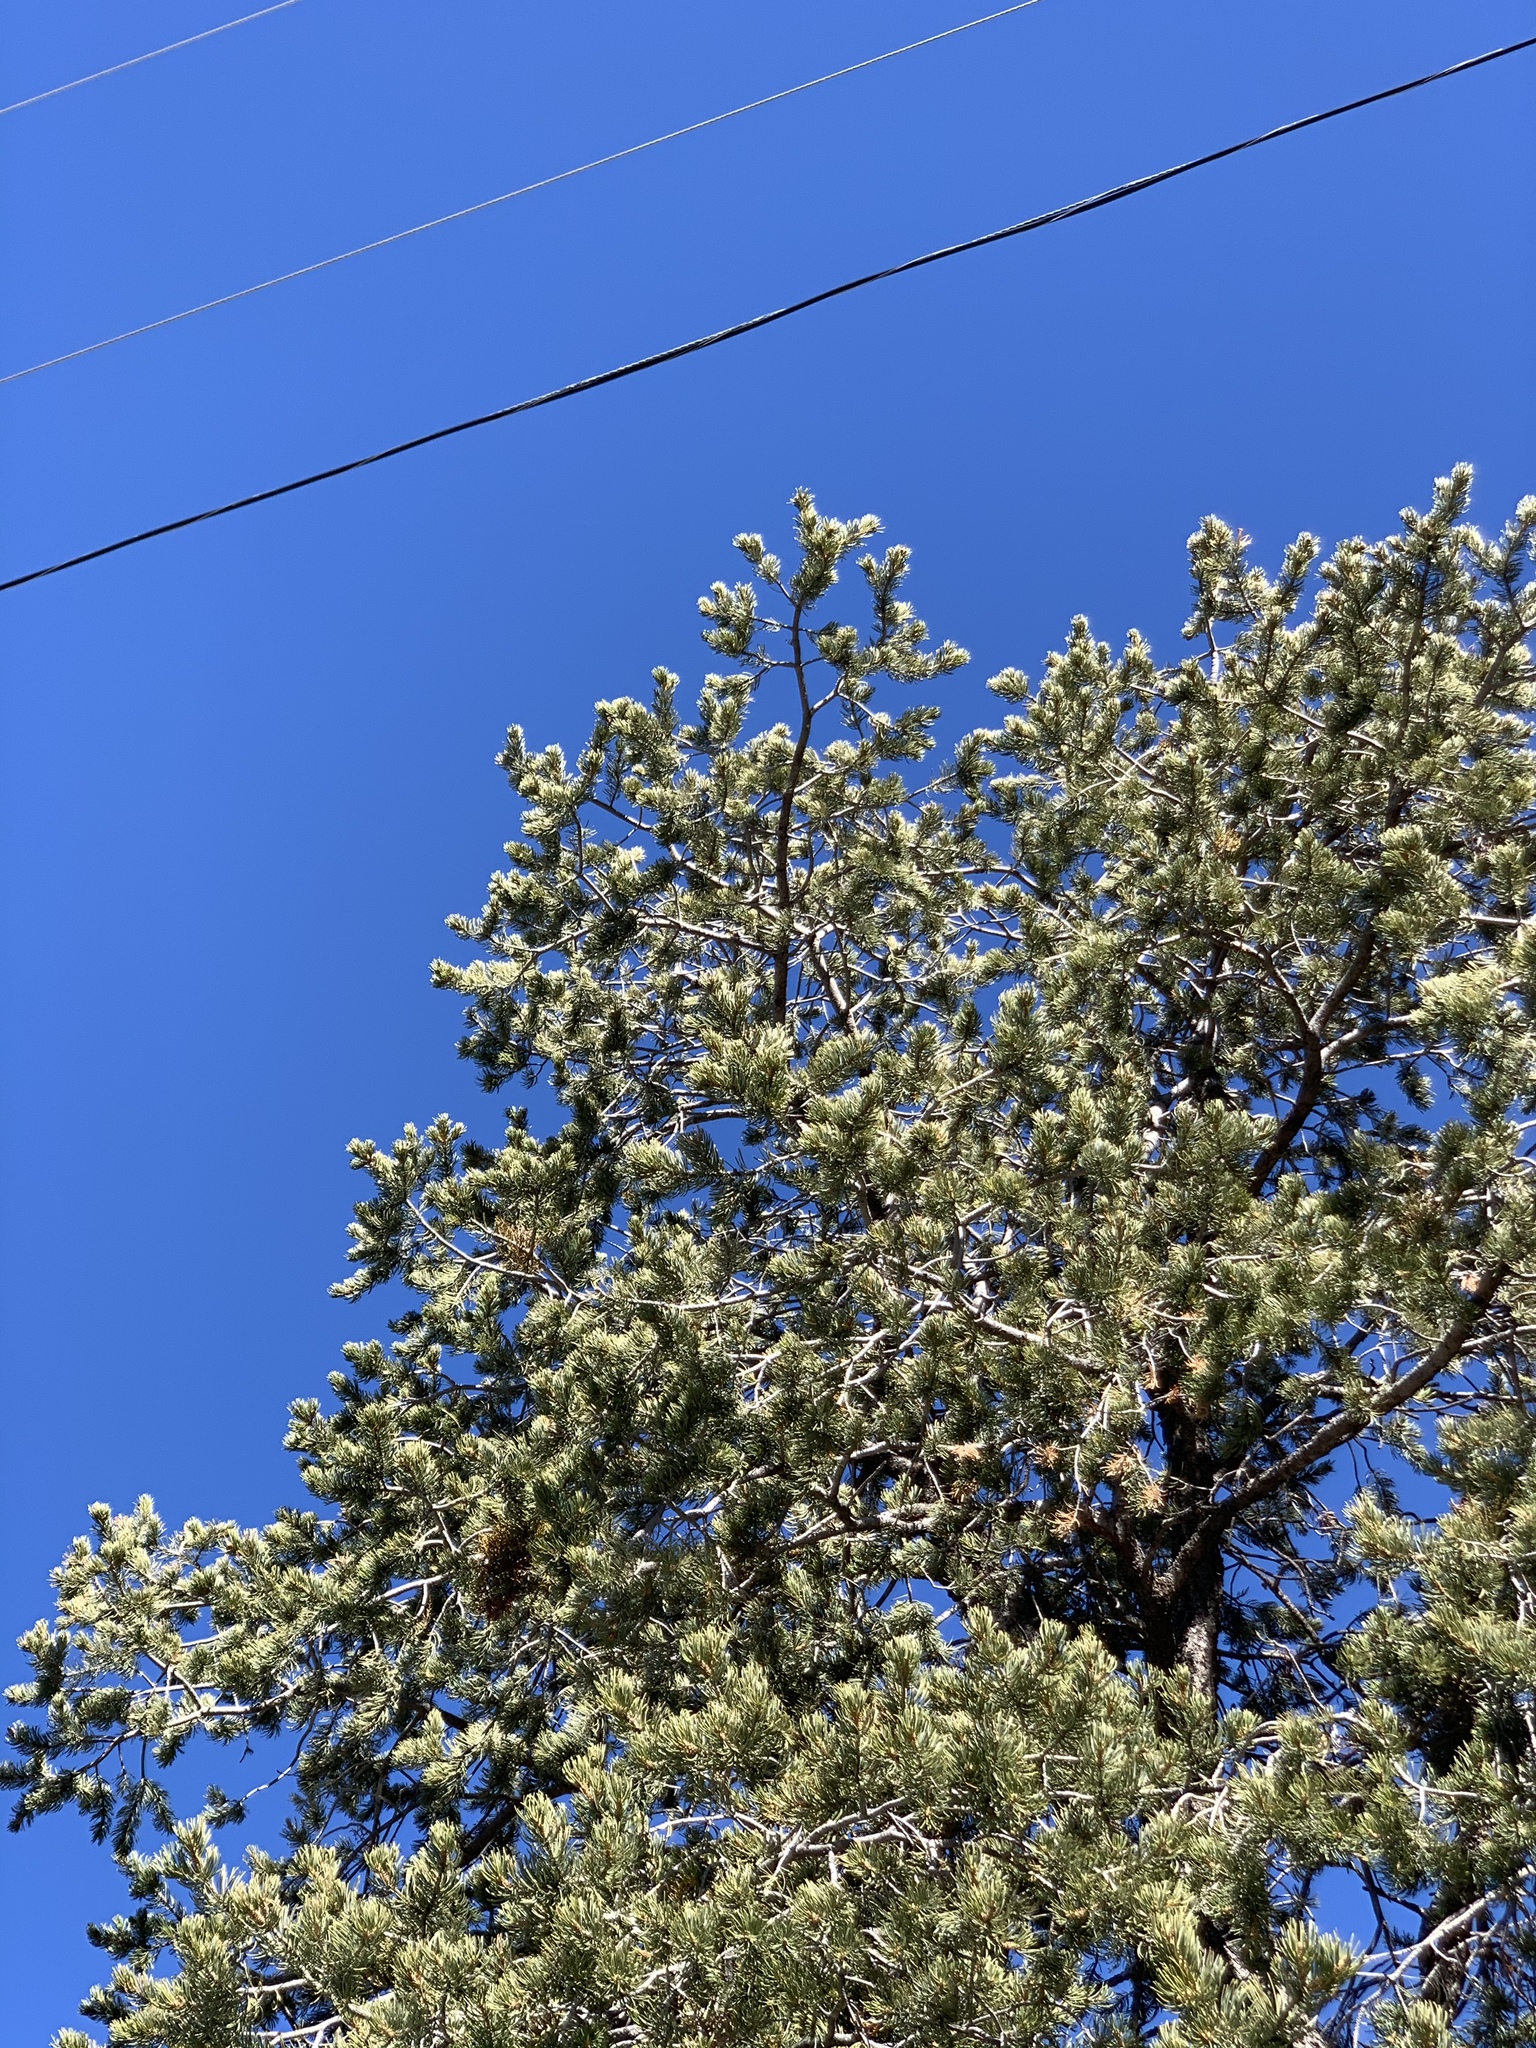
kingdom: Plantae
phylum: Tracheophyta
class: Pinopsida
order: Pinales
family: Pinaceae
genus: Pinus
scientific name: Pinus edulis
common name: Colorado pinyon
